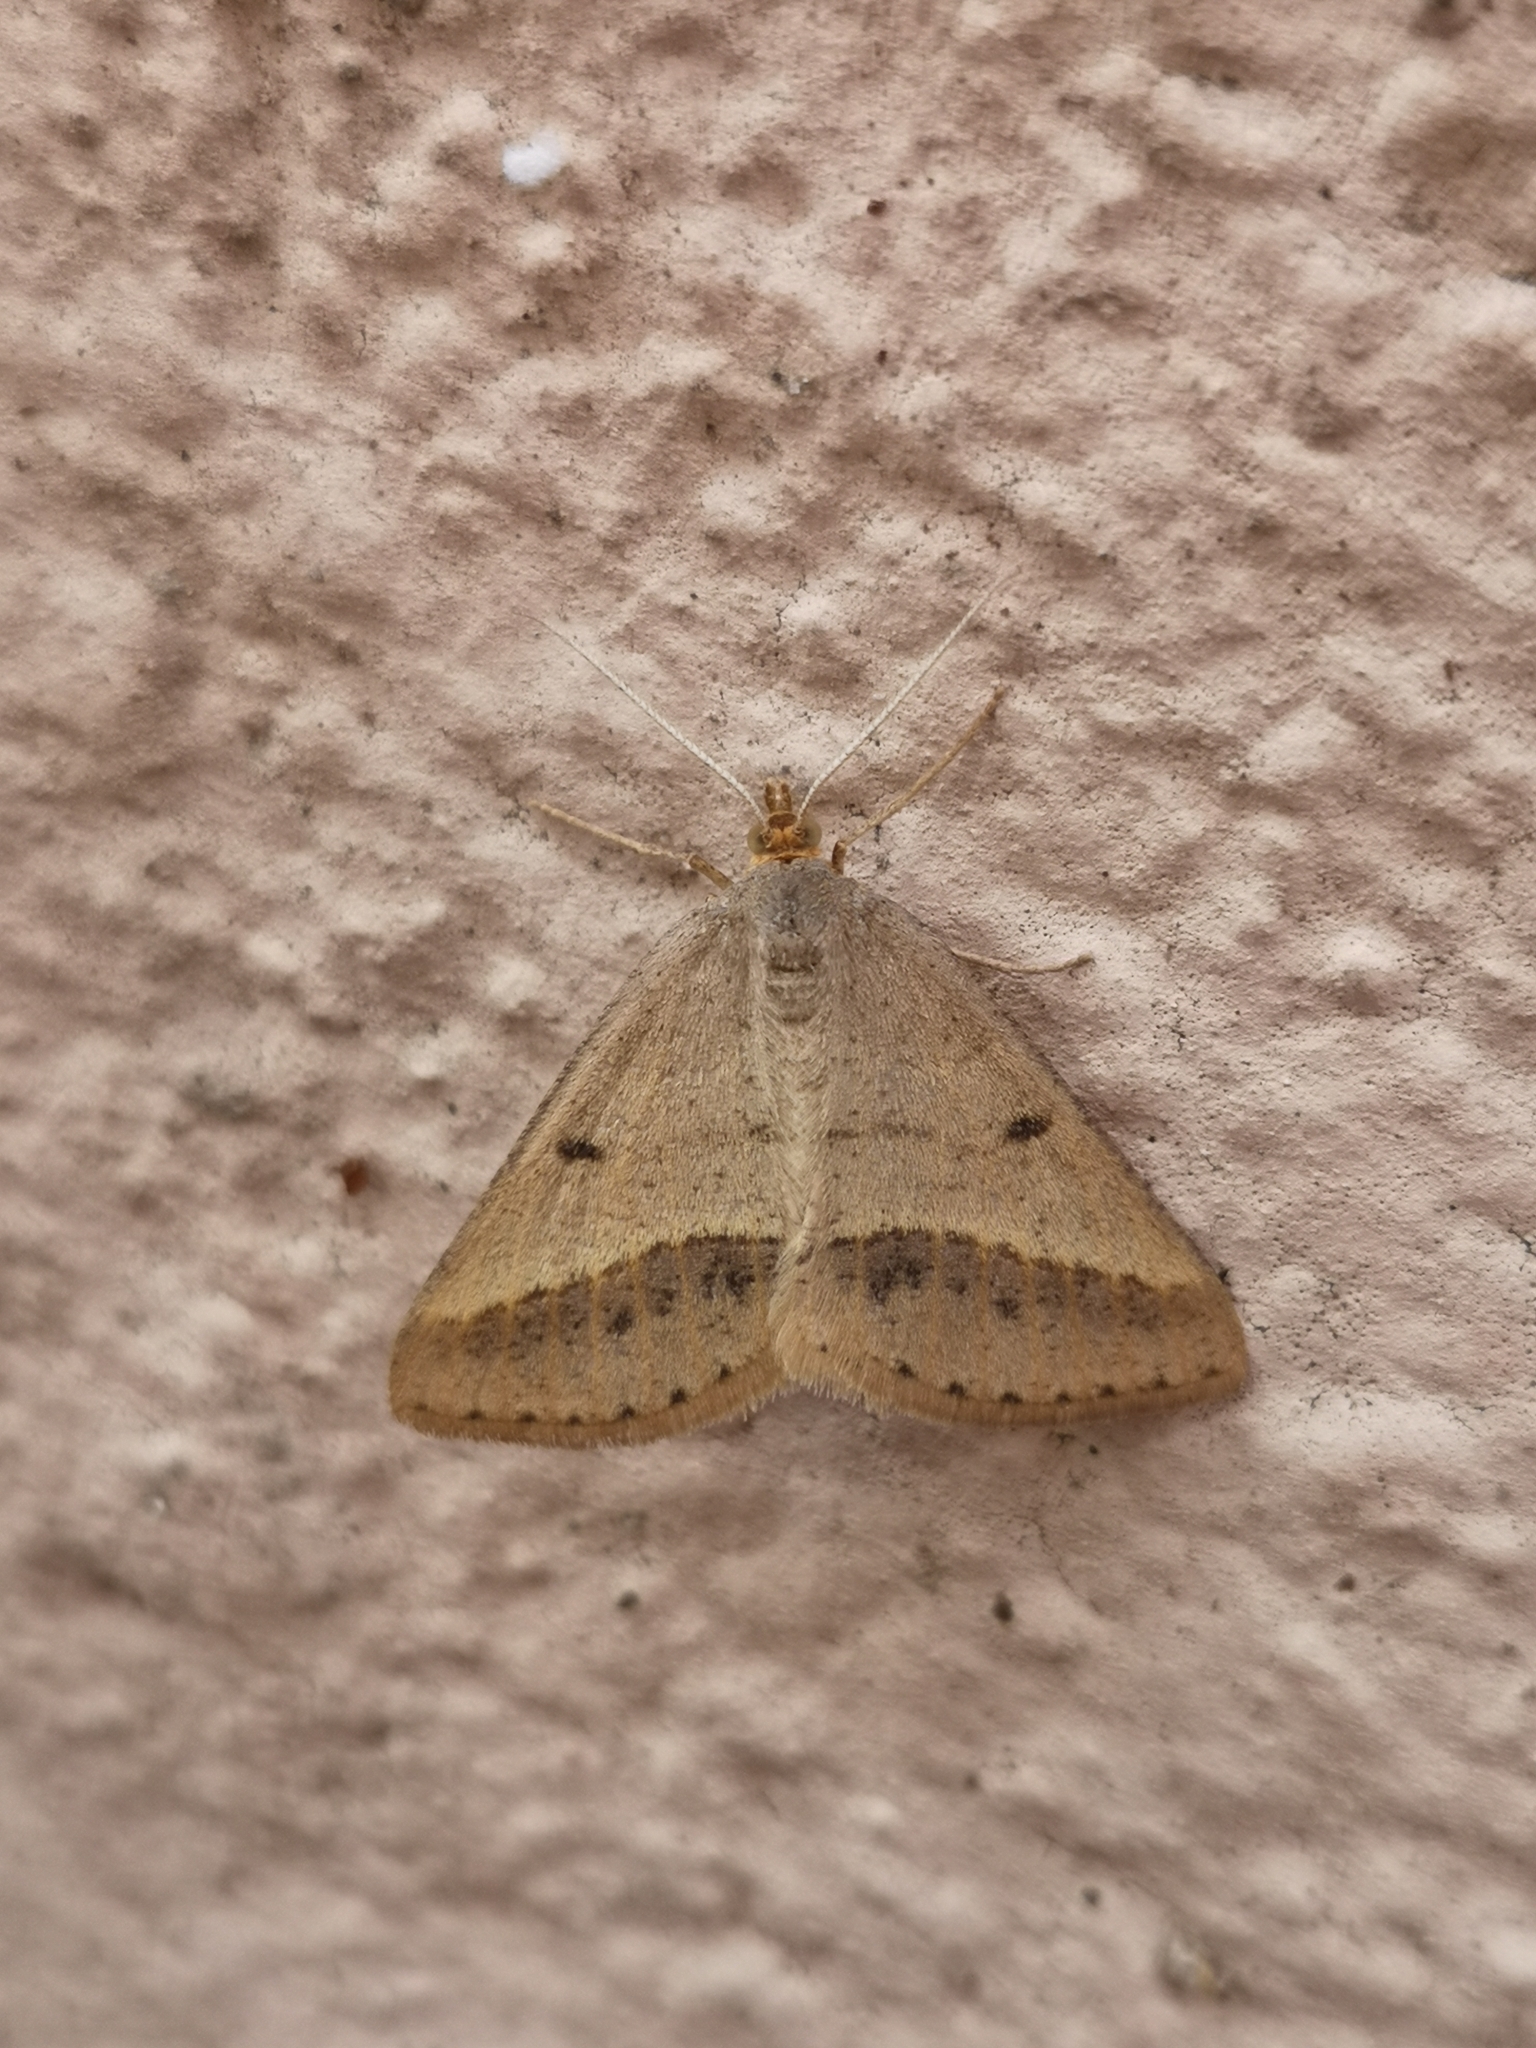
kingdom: Animalia
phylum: Arthropoda
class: Insecta
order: Lepidoptera
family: Geometridae
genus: Tephrina
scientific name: Tephrina arenacearia
